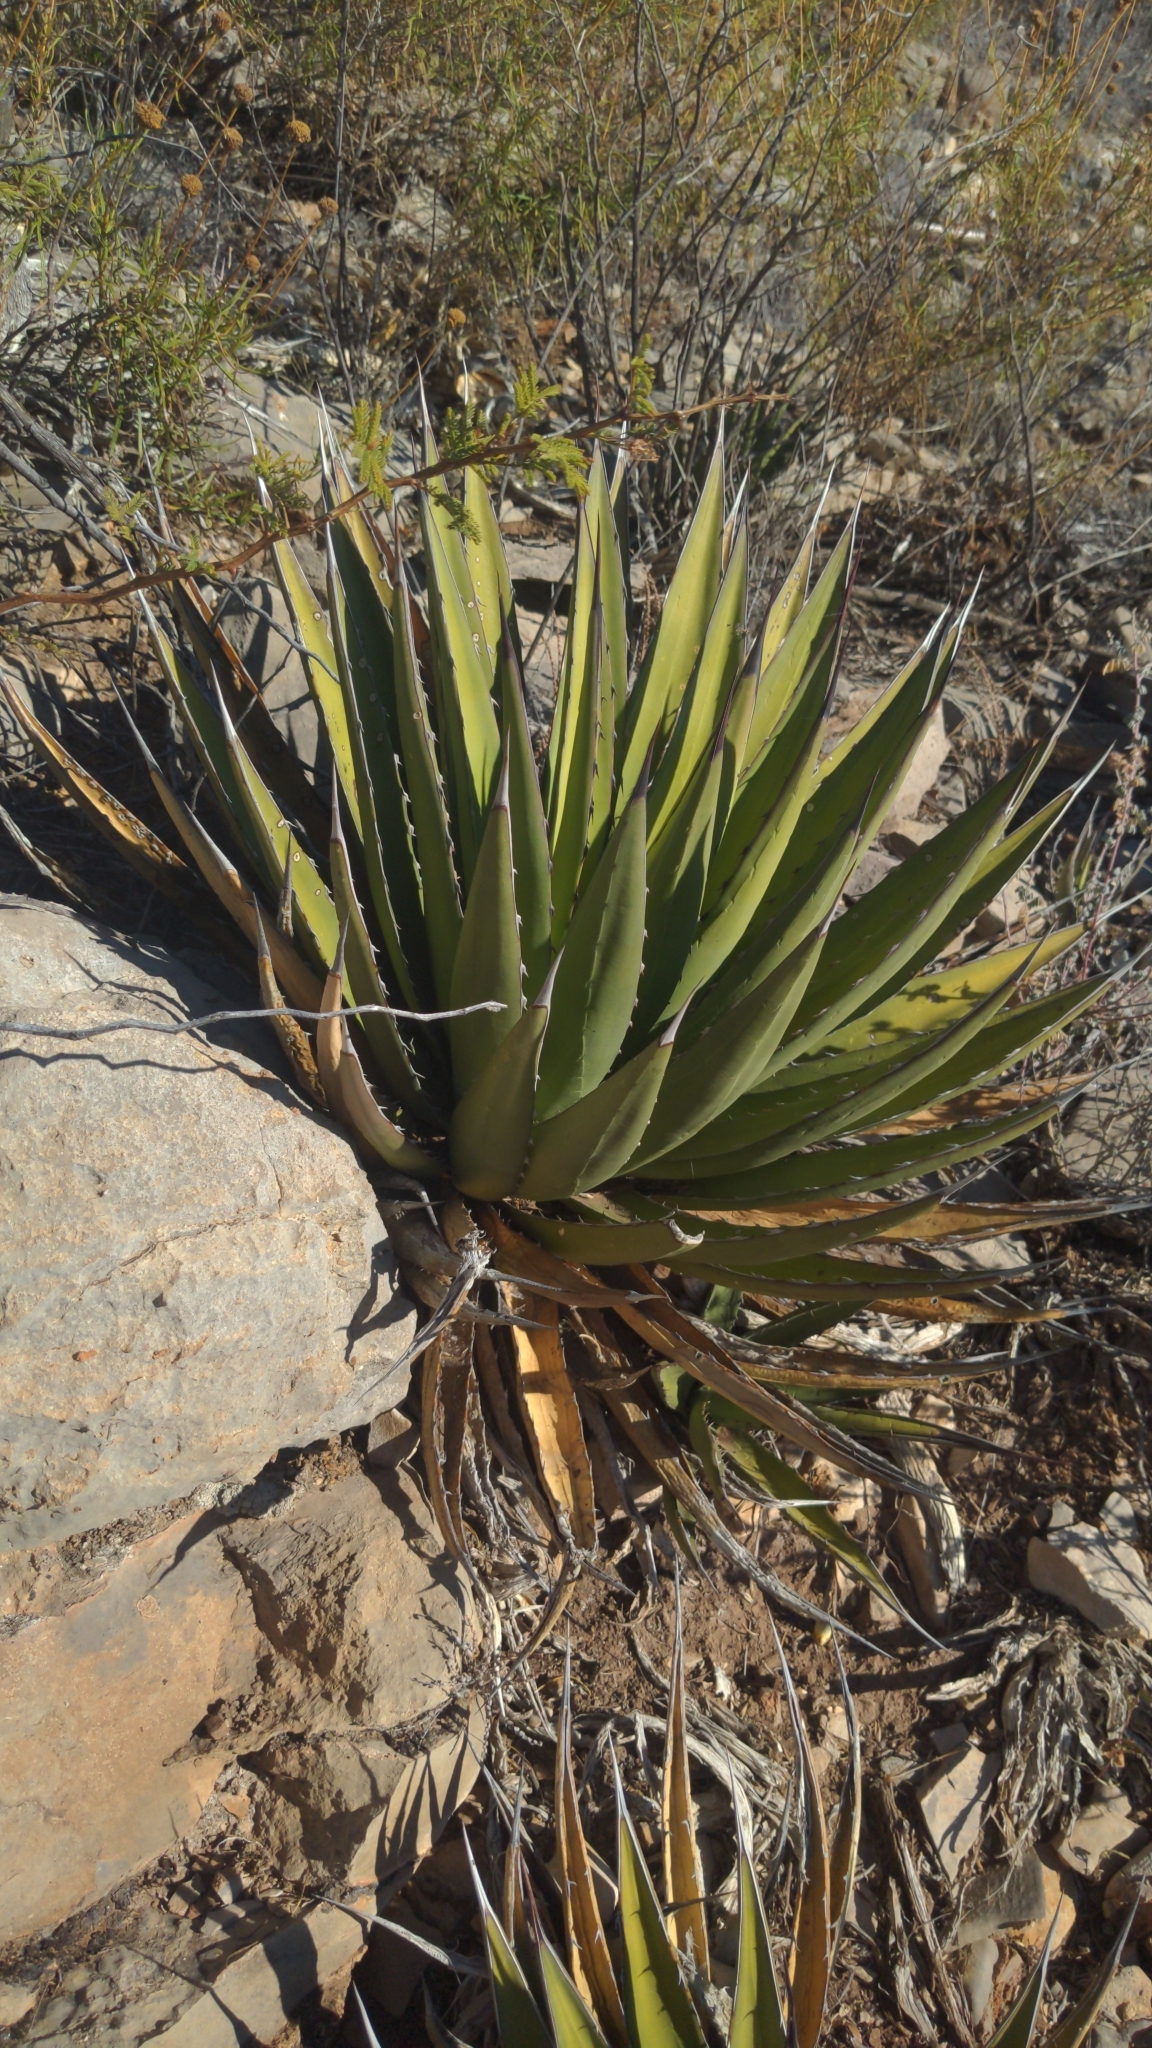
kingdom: Plantae
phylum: Tracheophyta
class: Liliopsida
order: Asparagales
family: Asparagaceae
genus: Agave
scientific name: Agave lechuguilla
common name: Lecheguilla agave
